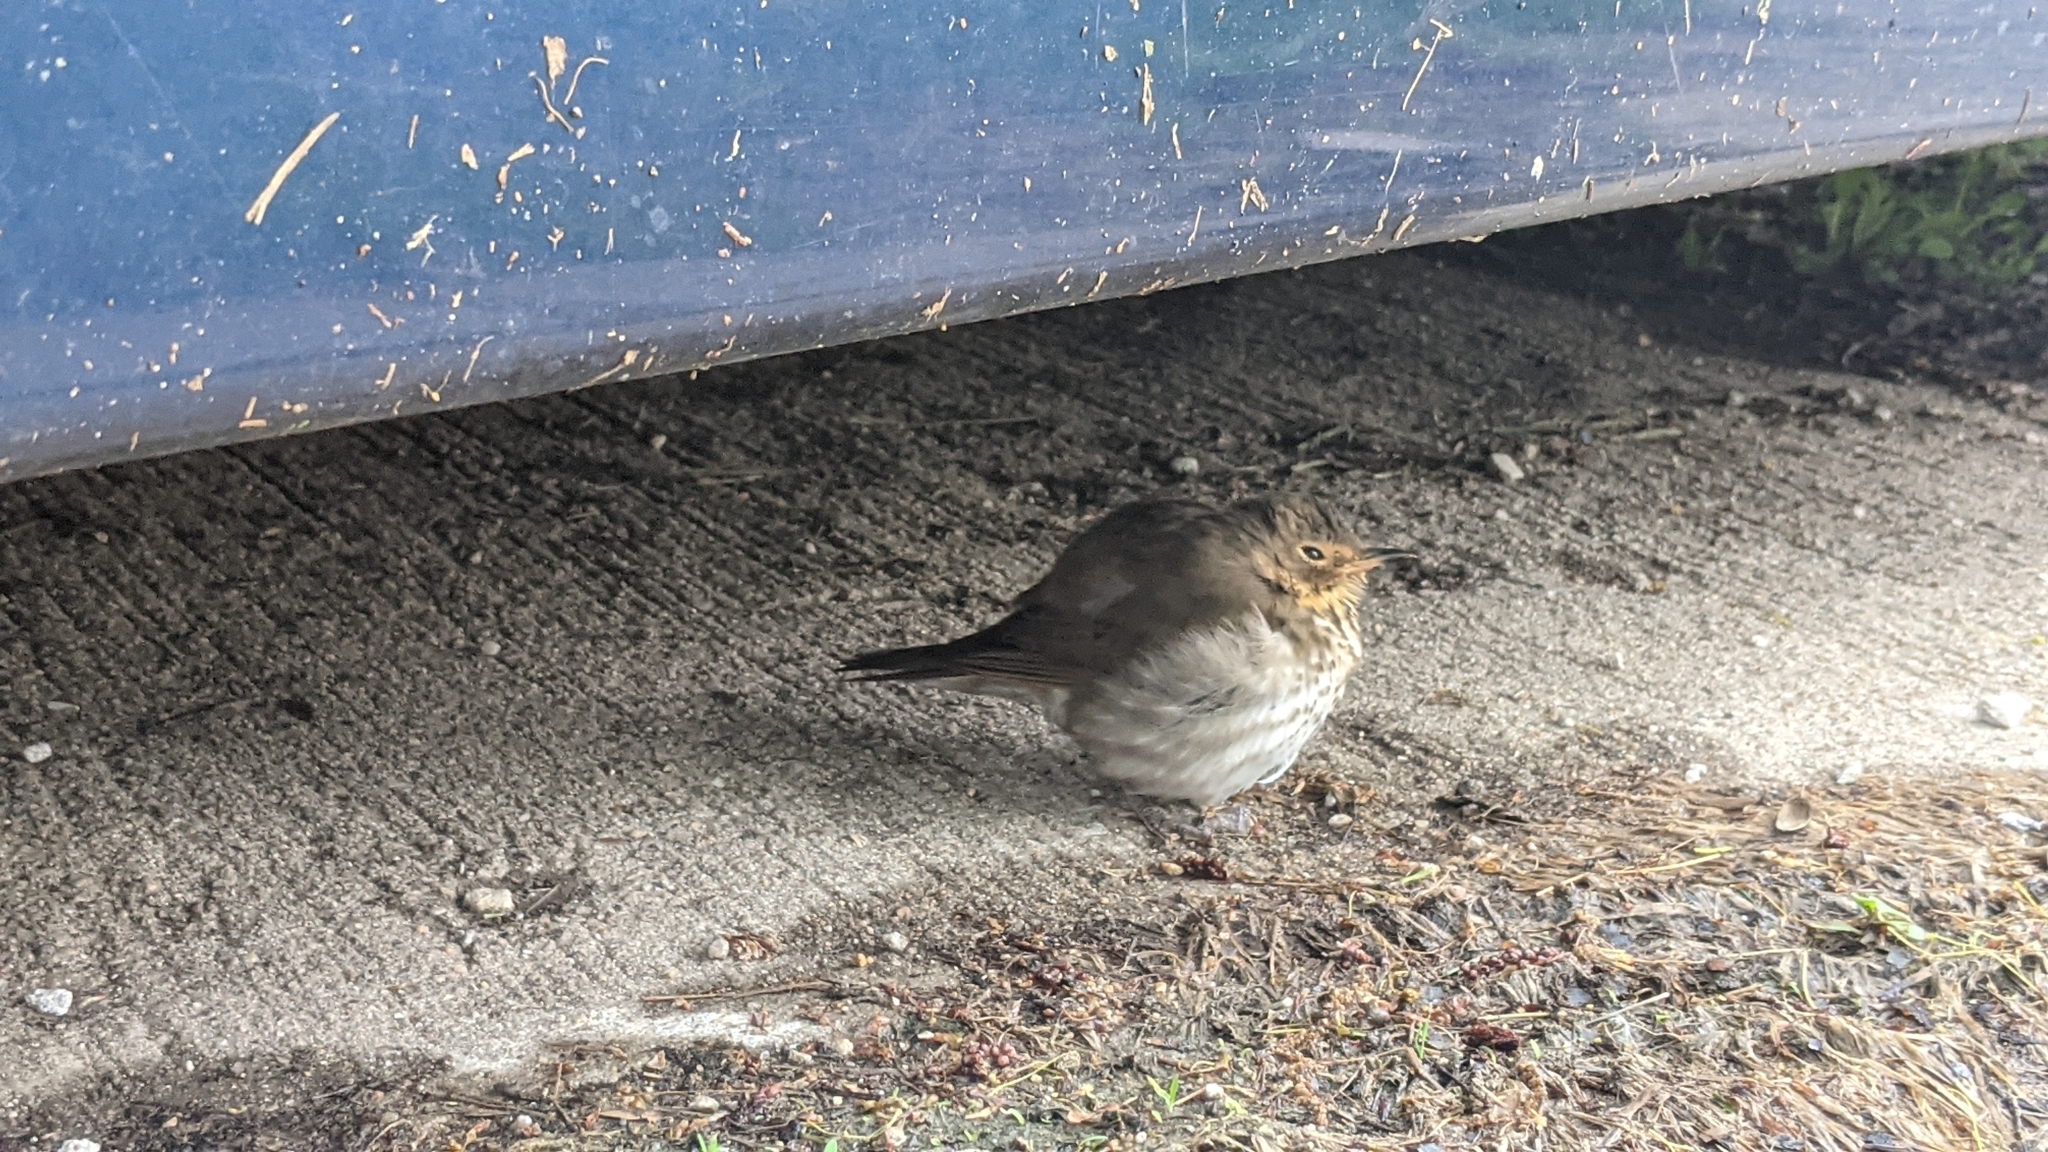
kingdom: Animalia
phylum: Chordata
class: Aves
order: Passeriformes
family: Turdidae
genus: Catharus
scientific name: Catharus ustulatus
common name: Swainson's thrush
